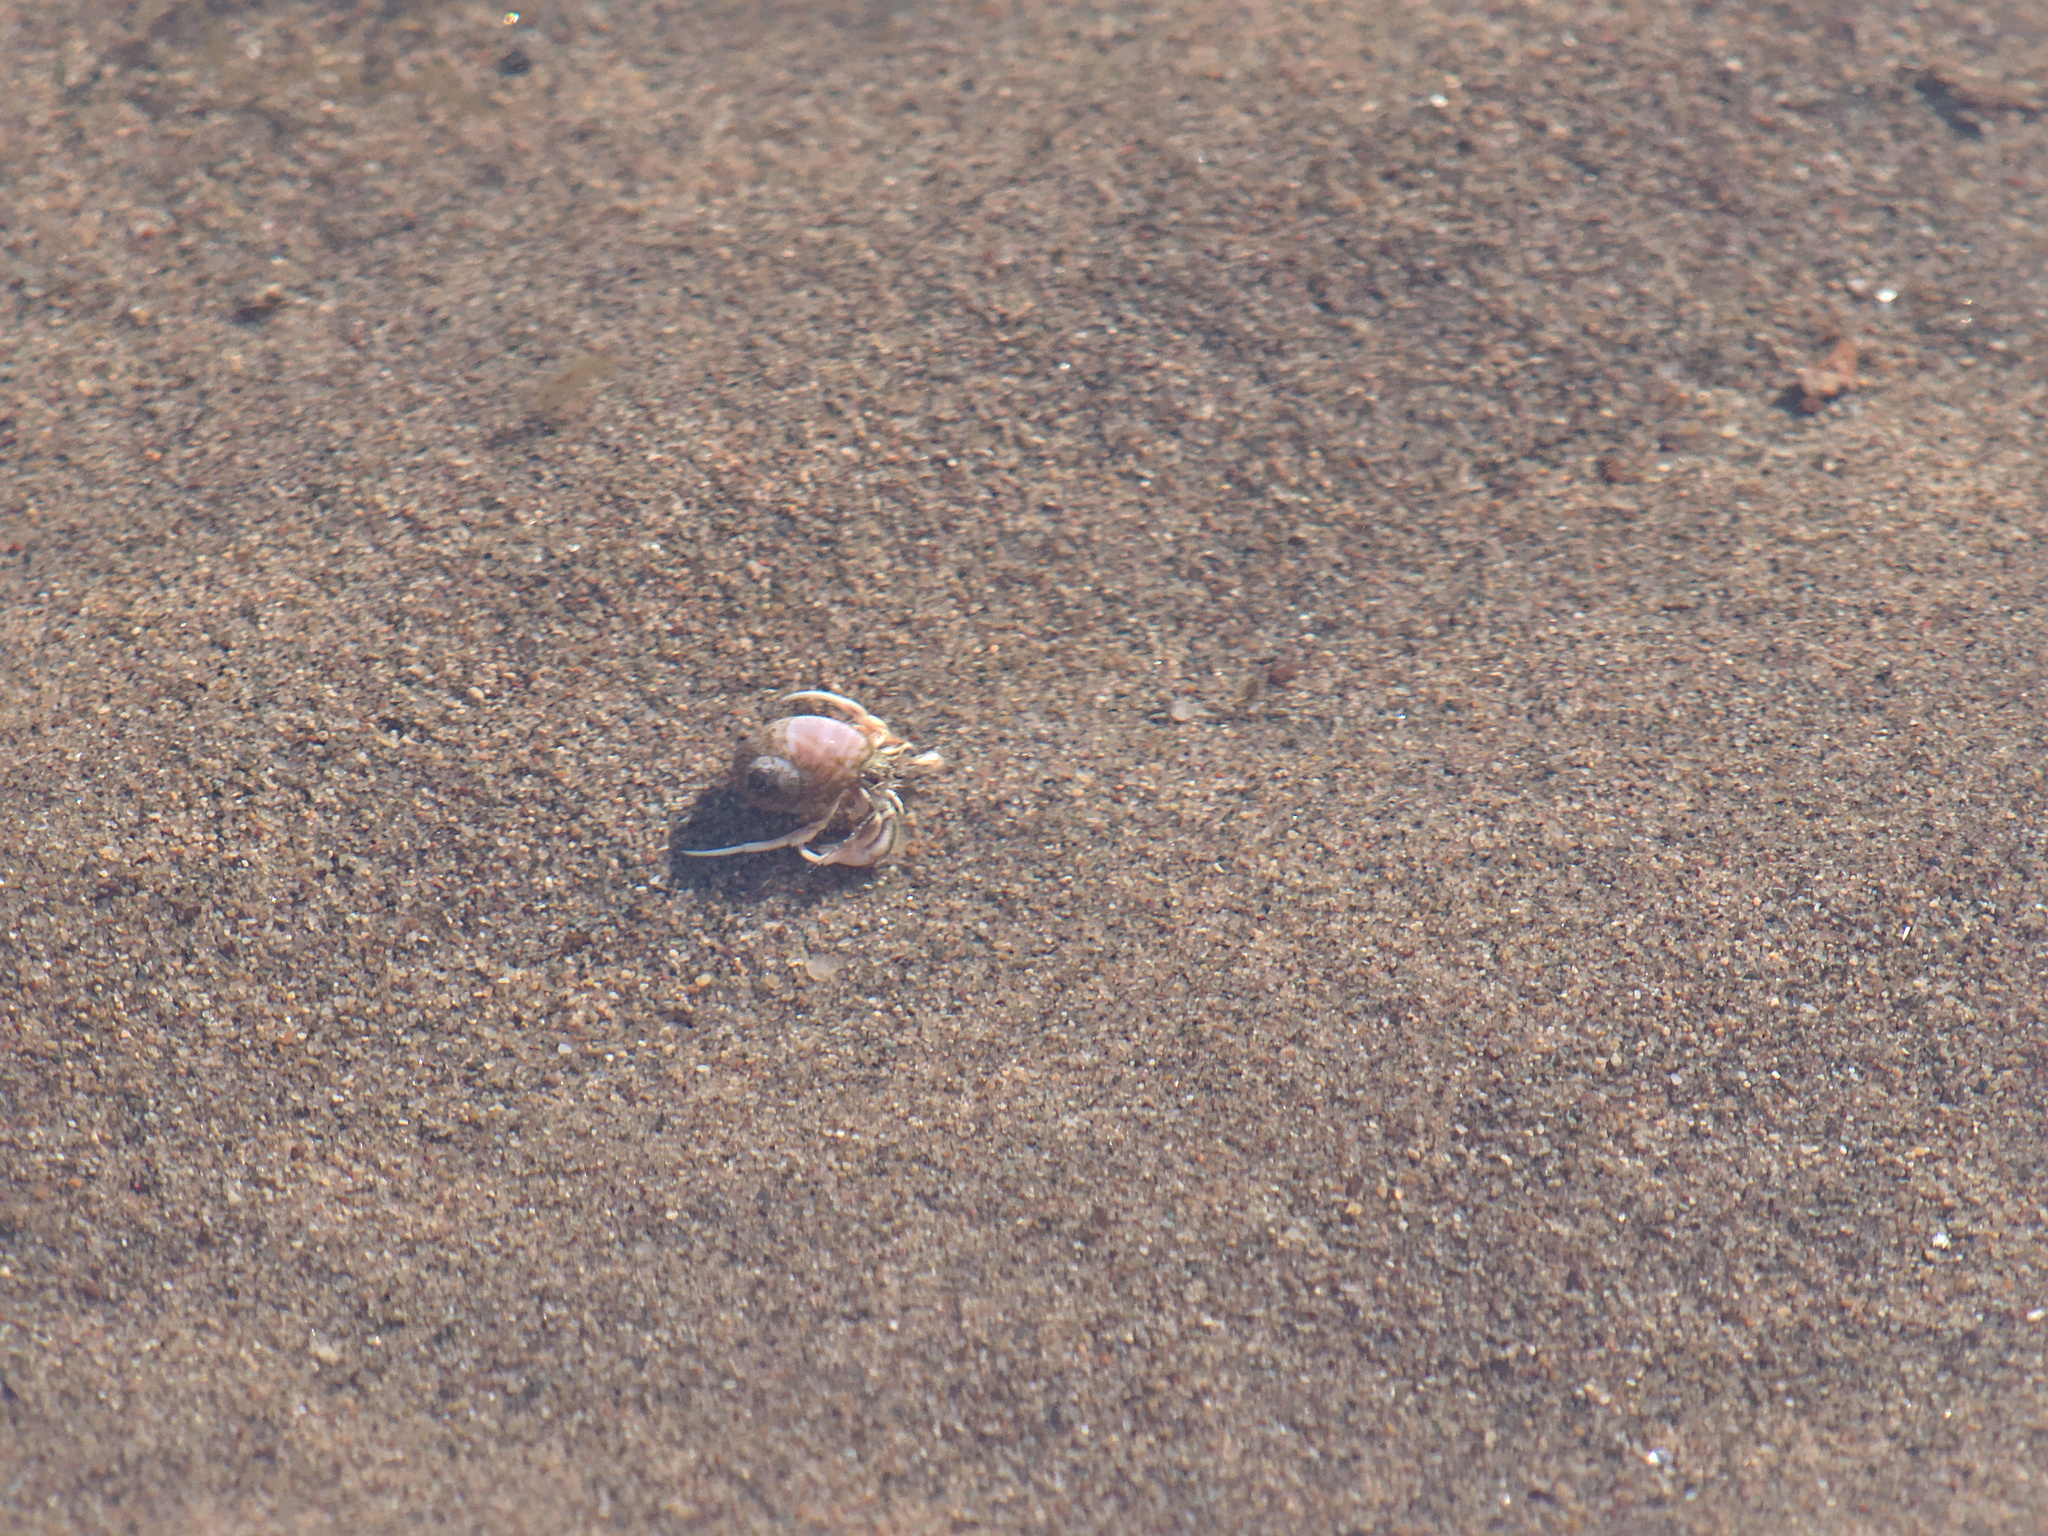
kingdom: Animalia
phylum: Arthropoda
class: Malacostraca
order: Decapoda
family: Paguridae
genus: Pagurus
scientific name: Pagurus longicarpus
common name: Long-armed hermit crab
